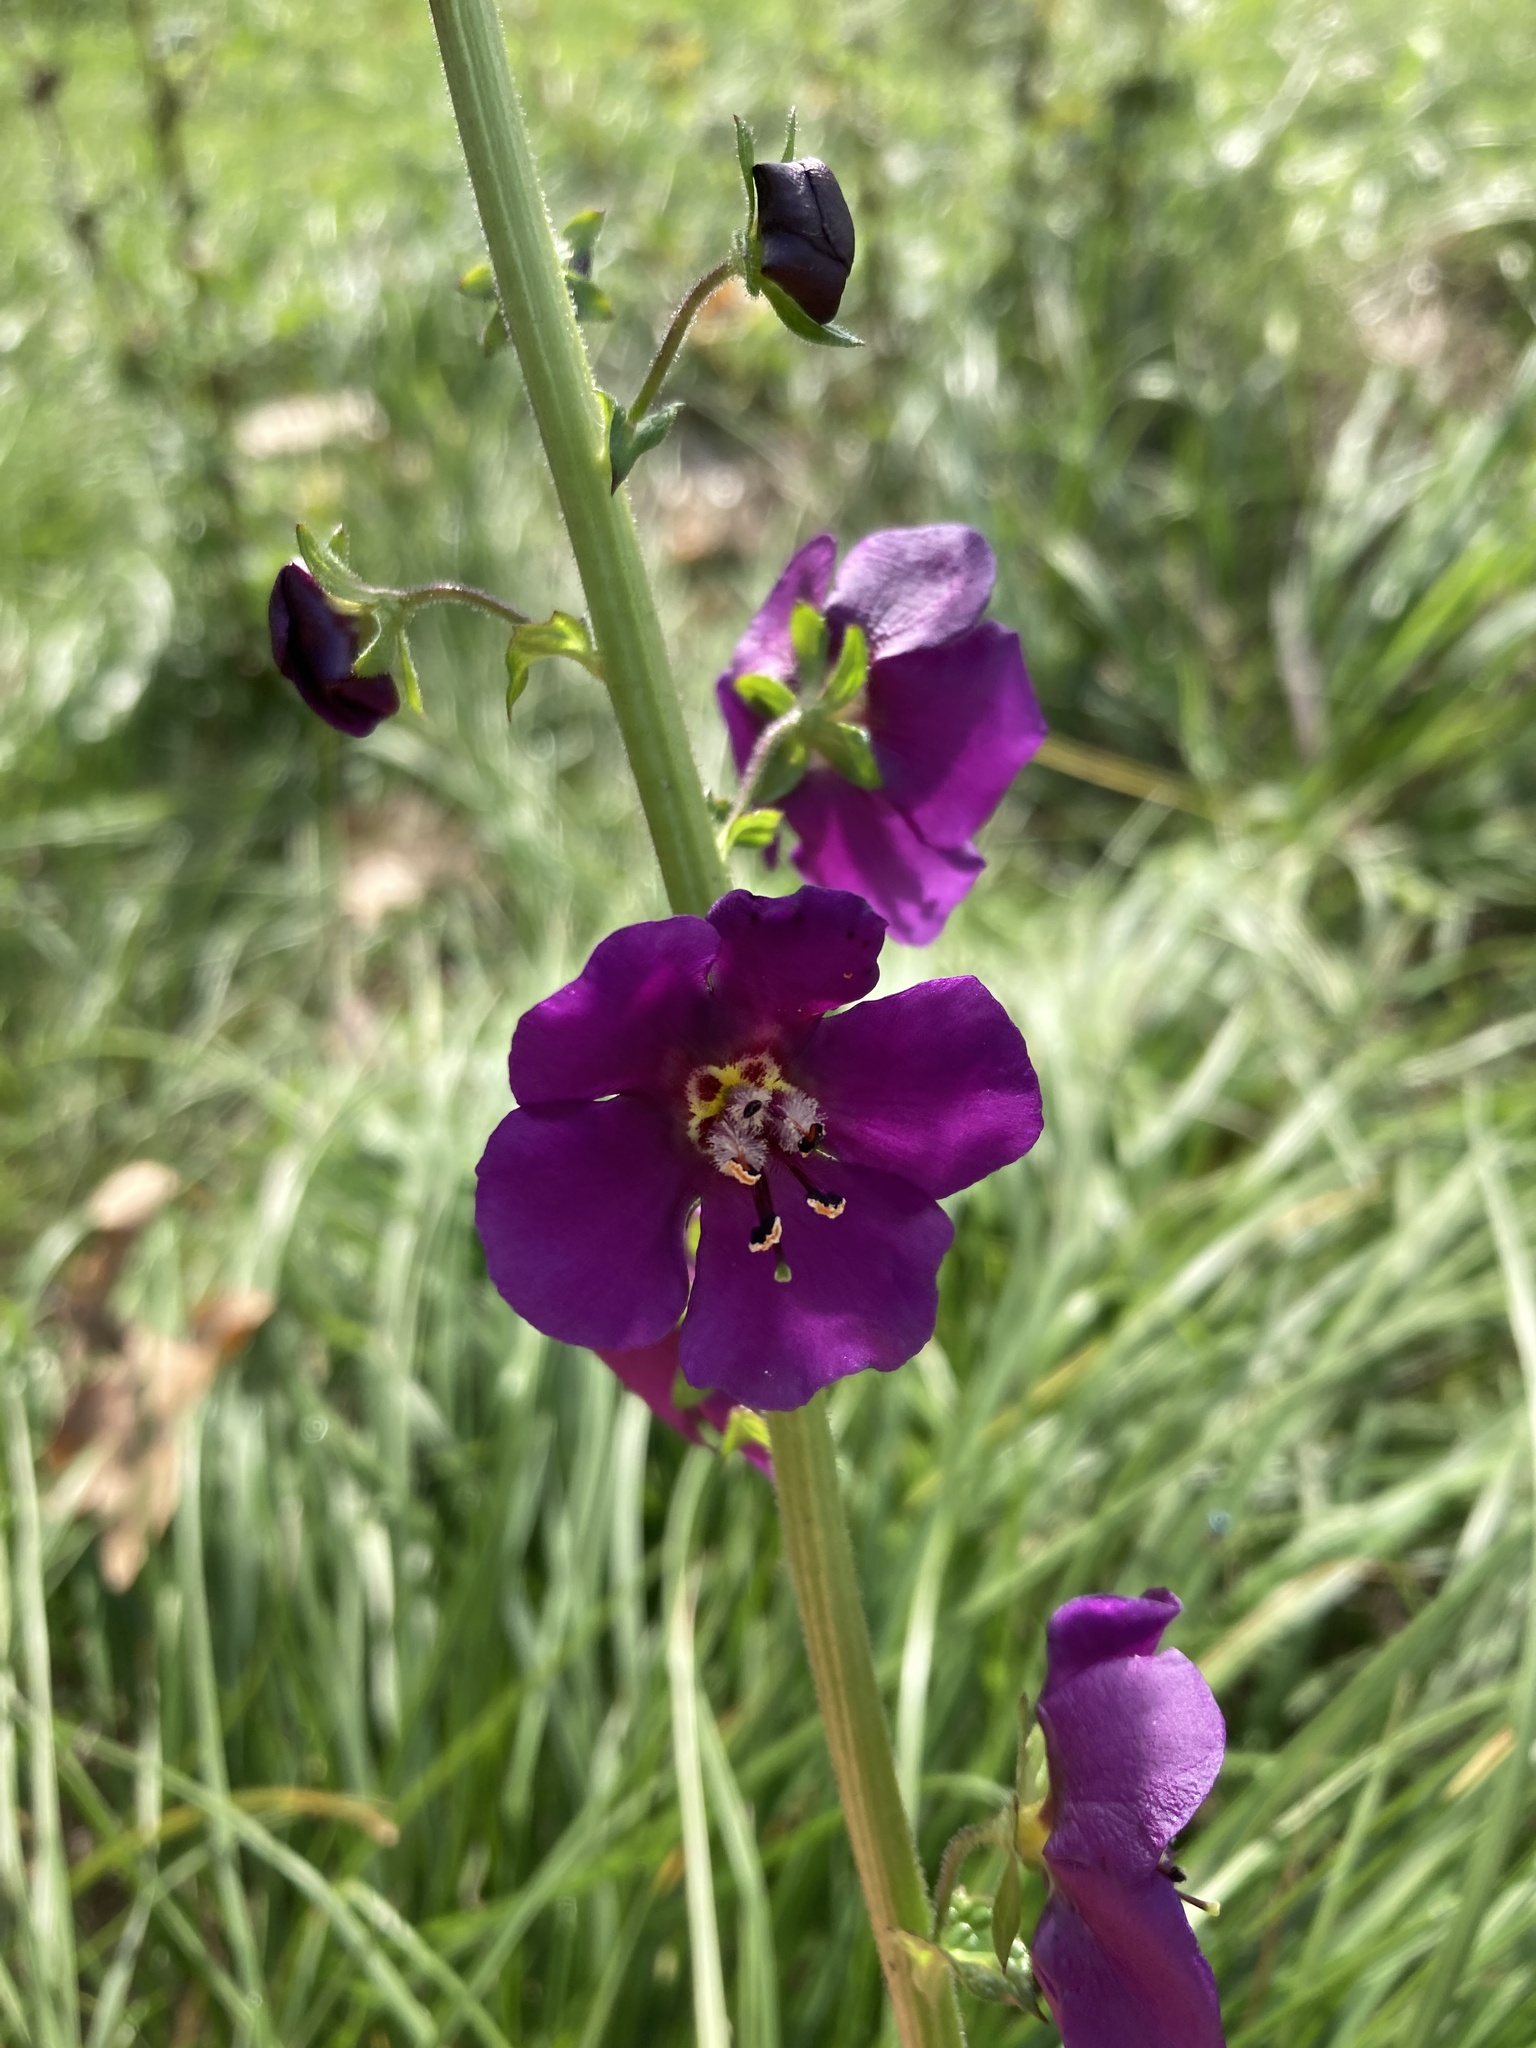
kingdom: Plantae
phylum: Tracheophyta
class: Magnoliopsida
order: Lamiales
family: Scrophulariaceae
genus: Verbascum
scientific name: Verbascum phoeniceum
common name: Purple mullein
